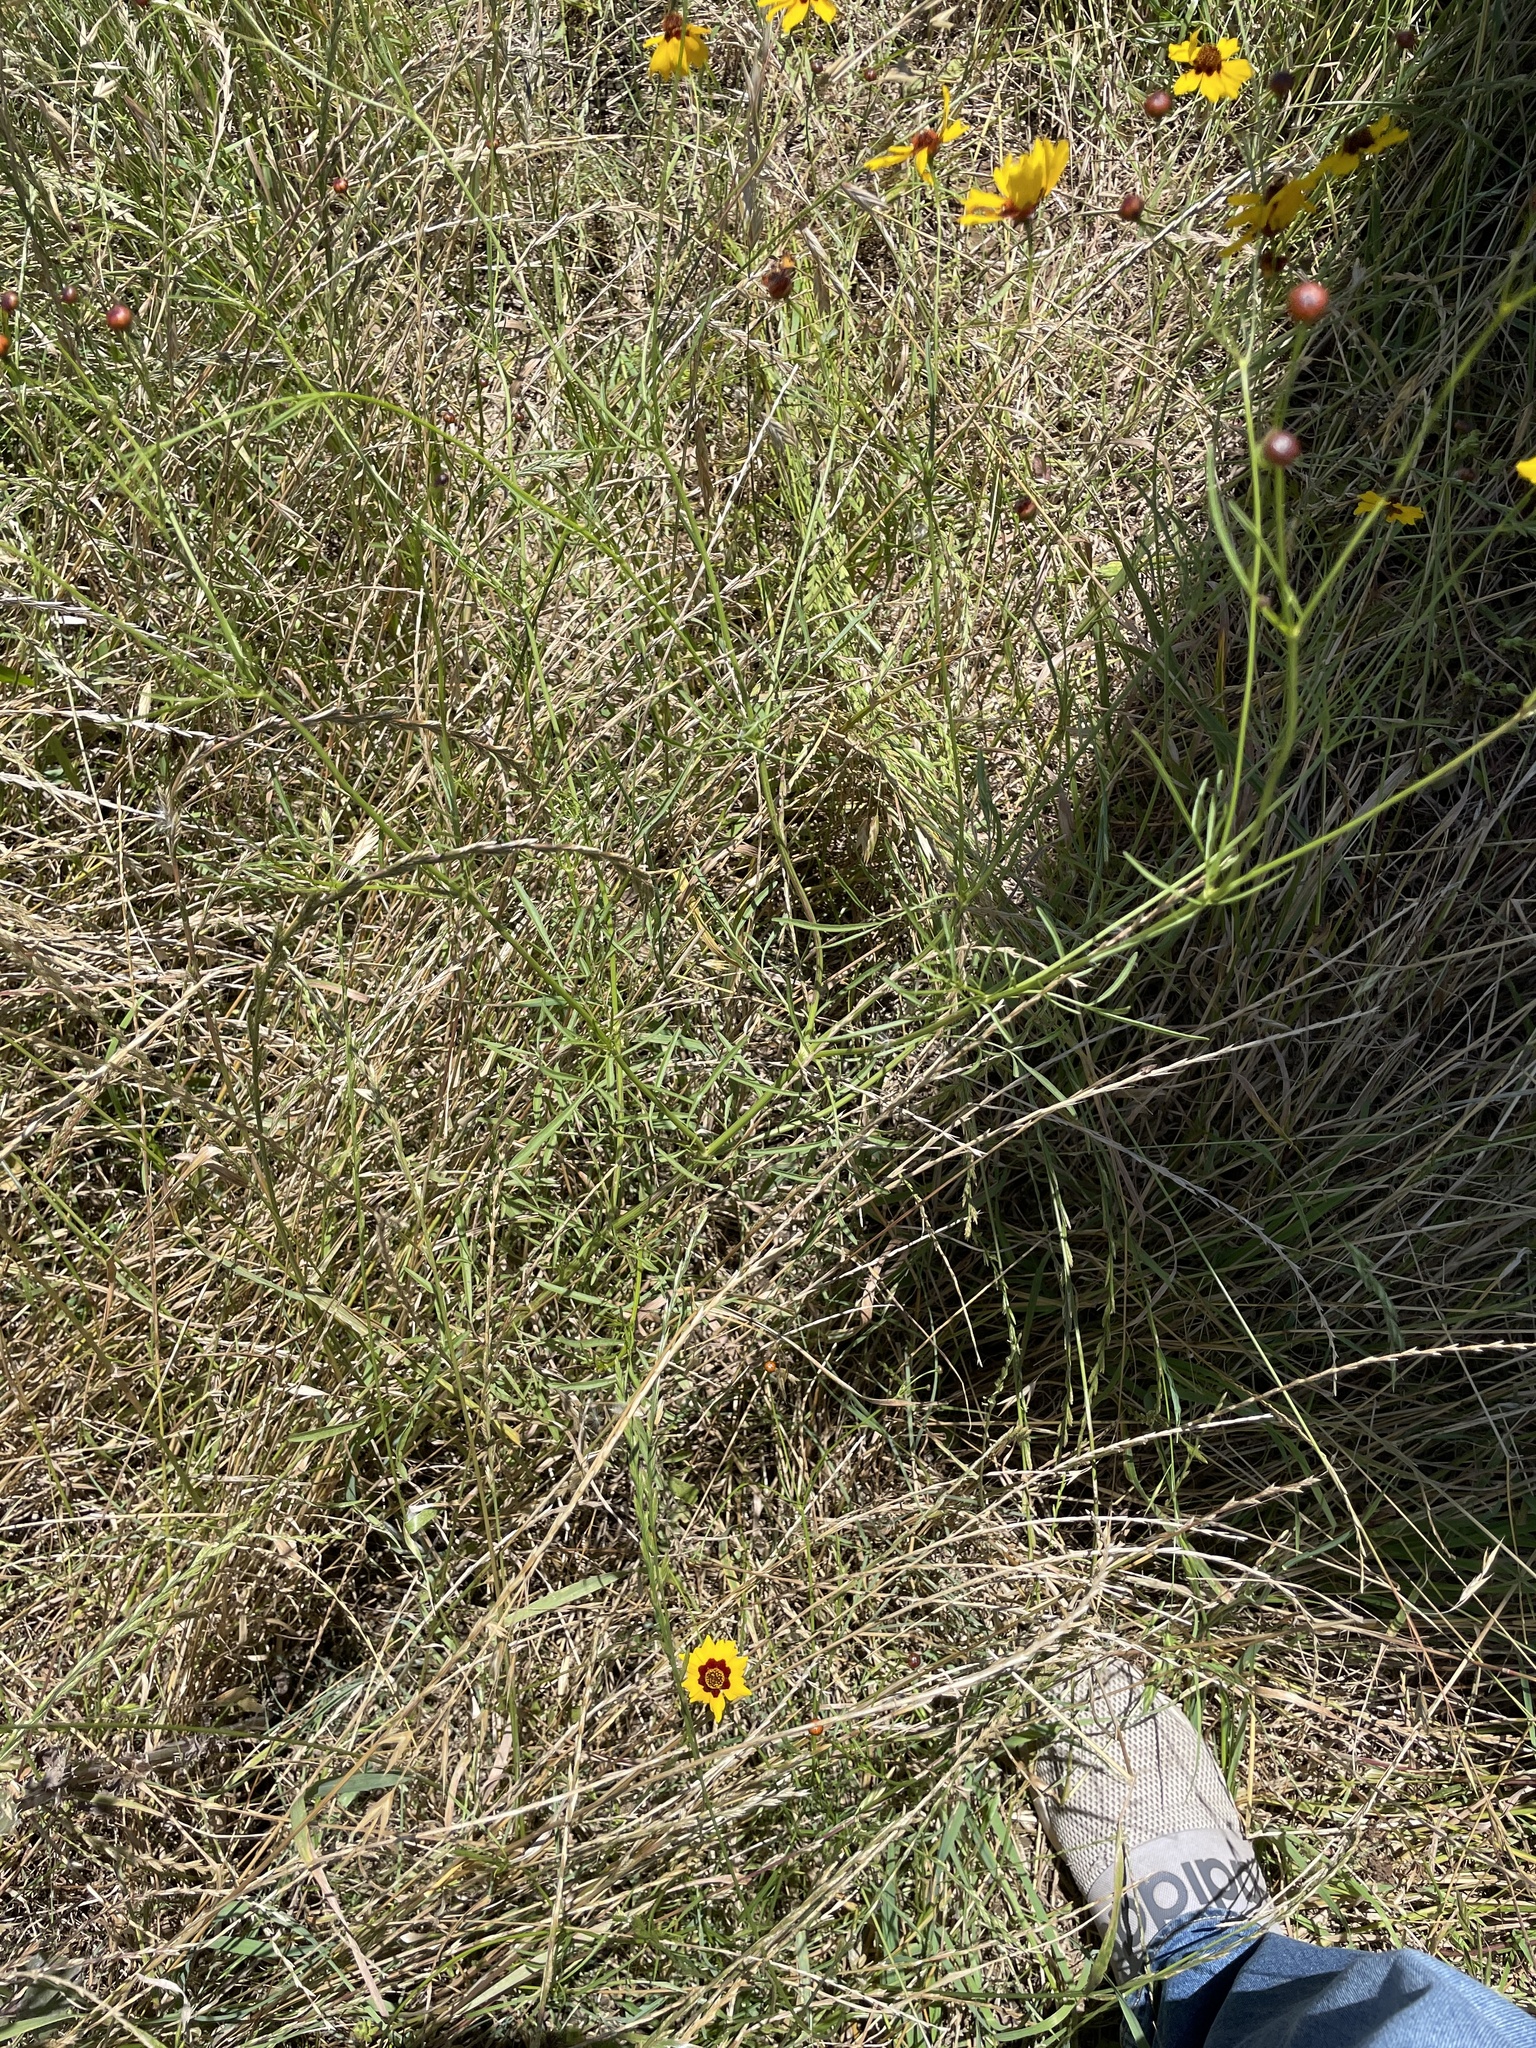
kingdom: Plantae
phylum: Tracheophyta
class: Magnoliopsida
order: Asterales
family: Asteraceae
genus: Coreopsis
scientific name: Coreopsis tinctoria
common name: Garden tickseed
